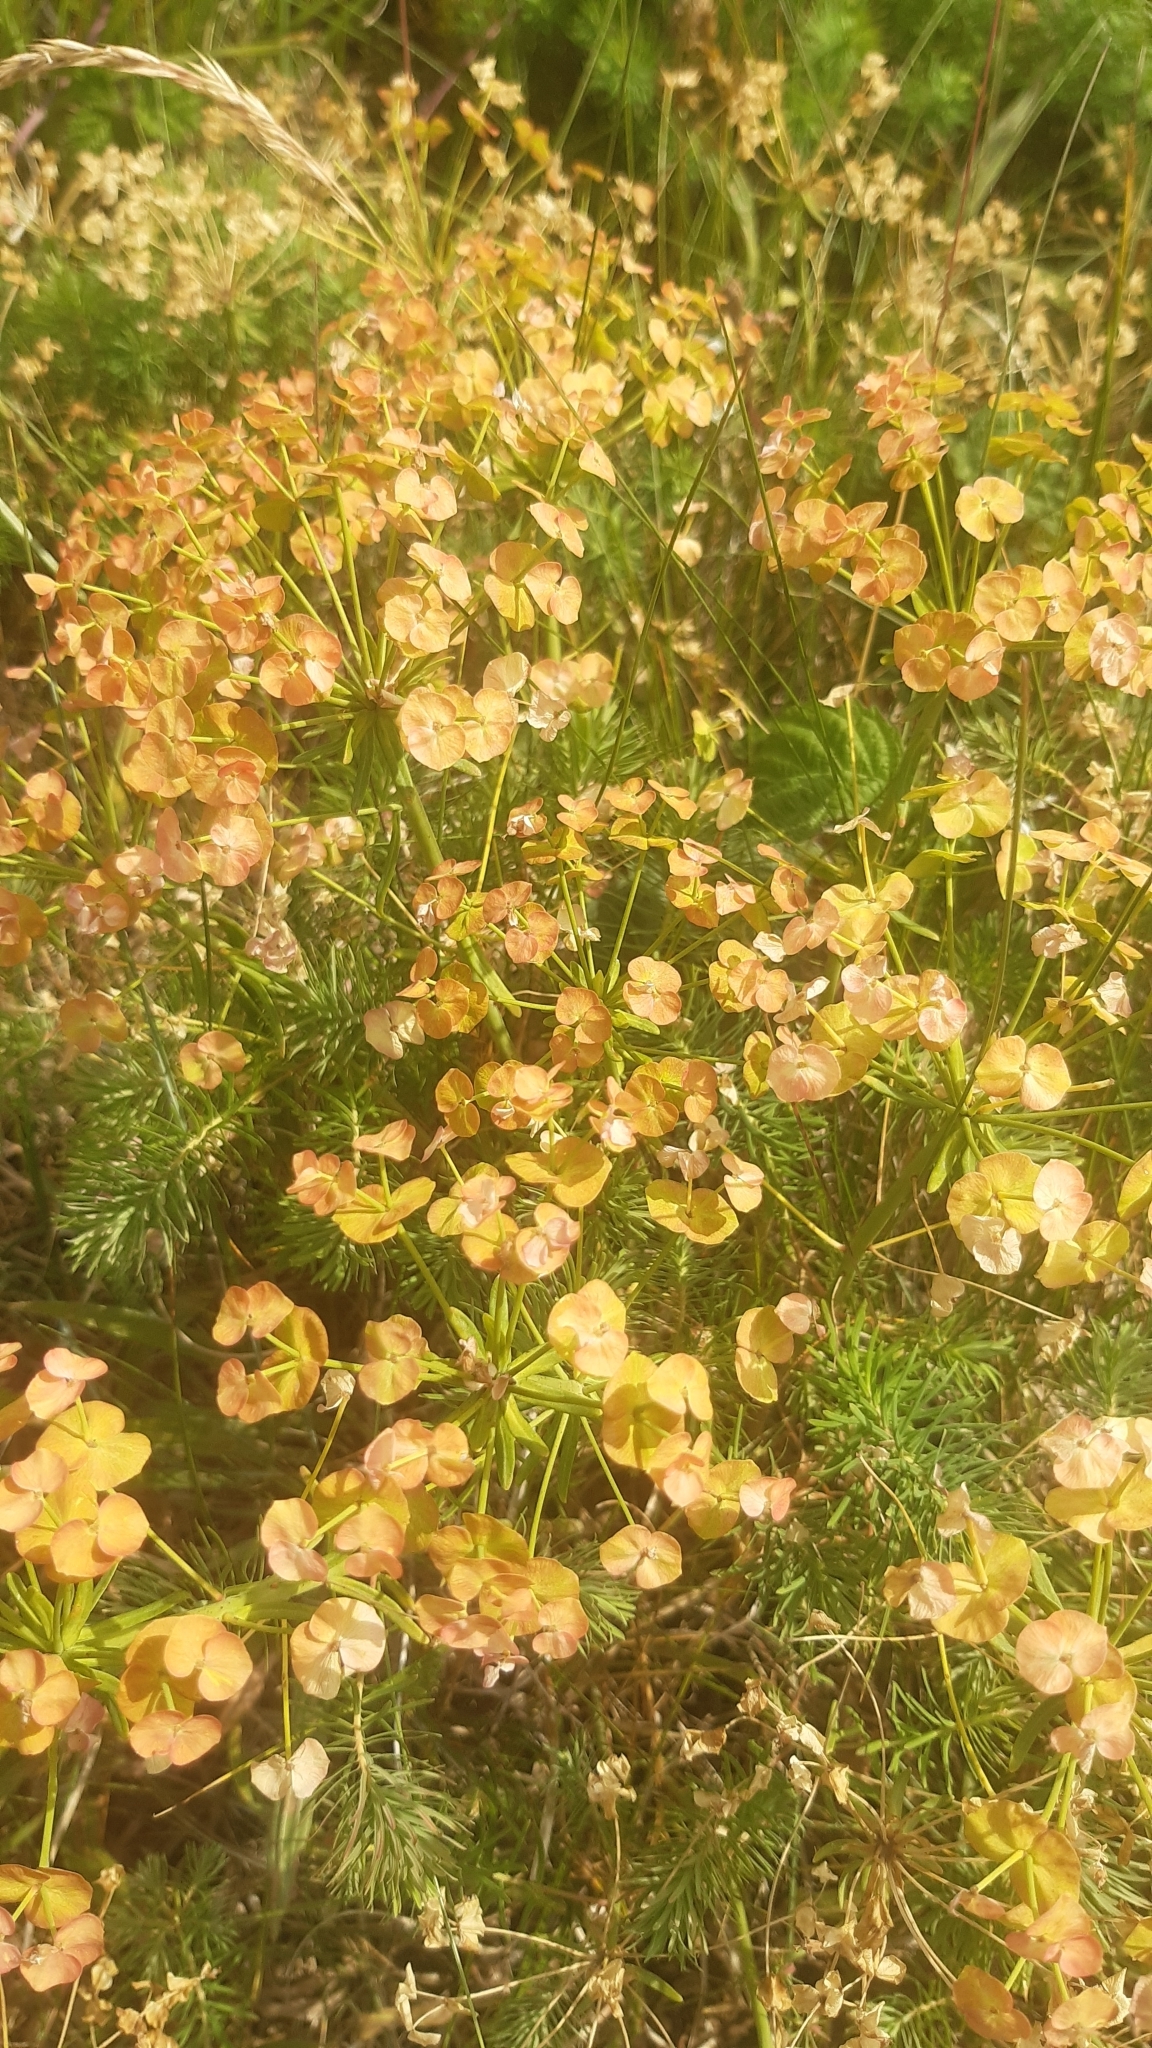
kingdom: Plantae
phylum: Tracheophyta
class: Magnoliopsida
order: Malpighiales
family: Euphorbiaceae
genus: Euphorbia
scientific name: Euphorbia cyparissias
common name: Cypress spurge
